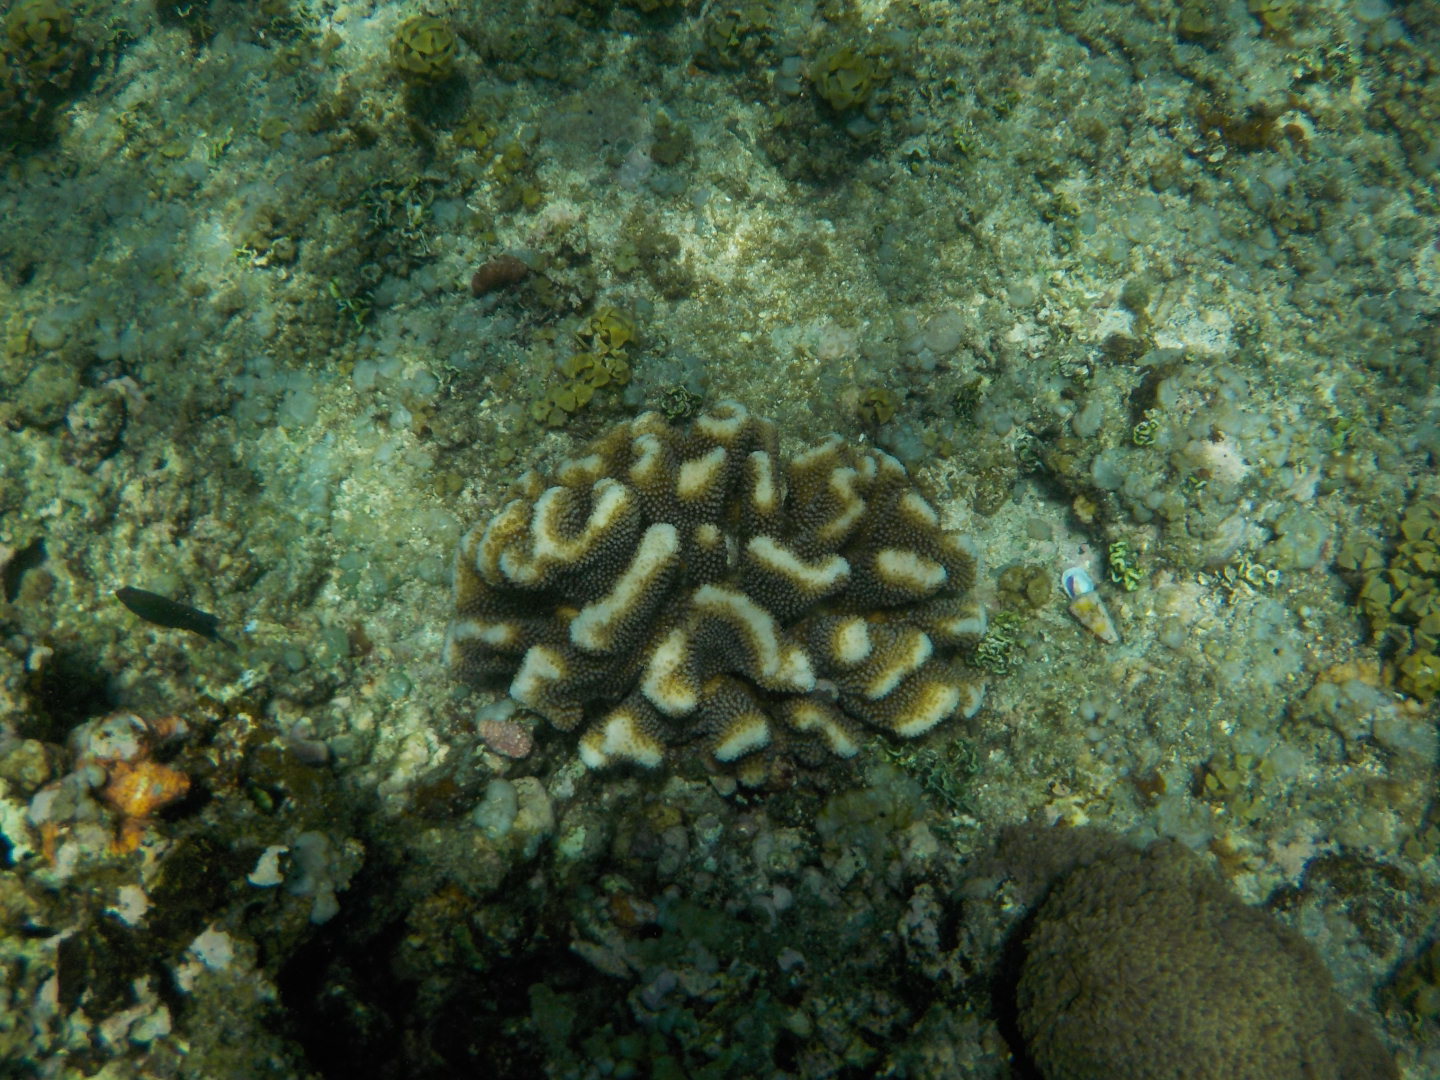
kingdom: Animalia
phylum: Cnidaria
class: Anthozoa
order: Scleractinia
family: Pocilloporidae
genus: Pocillopora
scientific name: Pocillopora meandrina
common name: Cauliflower coral
